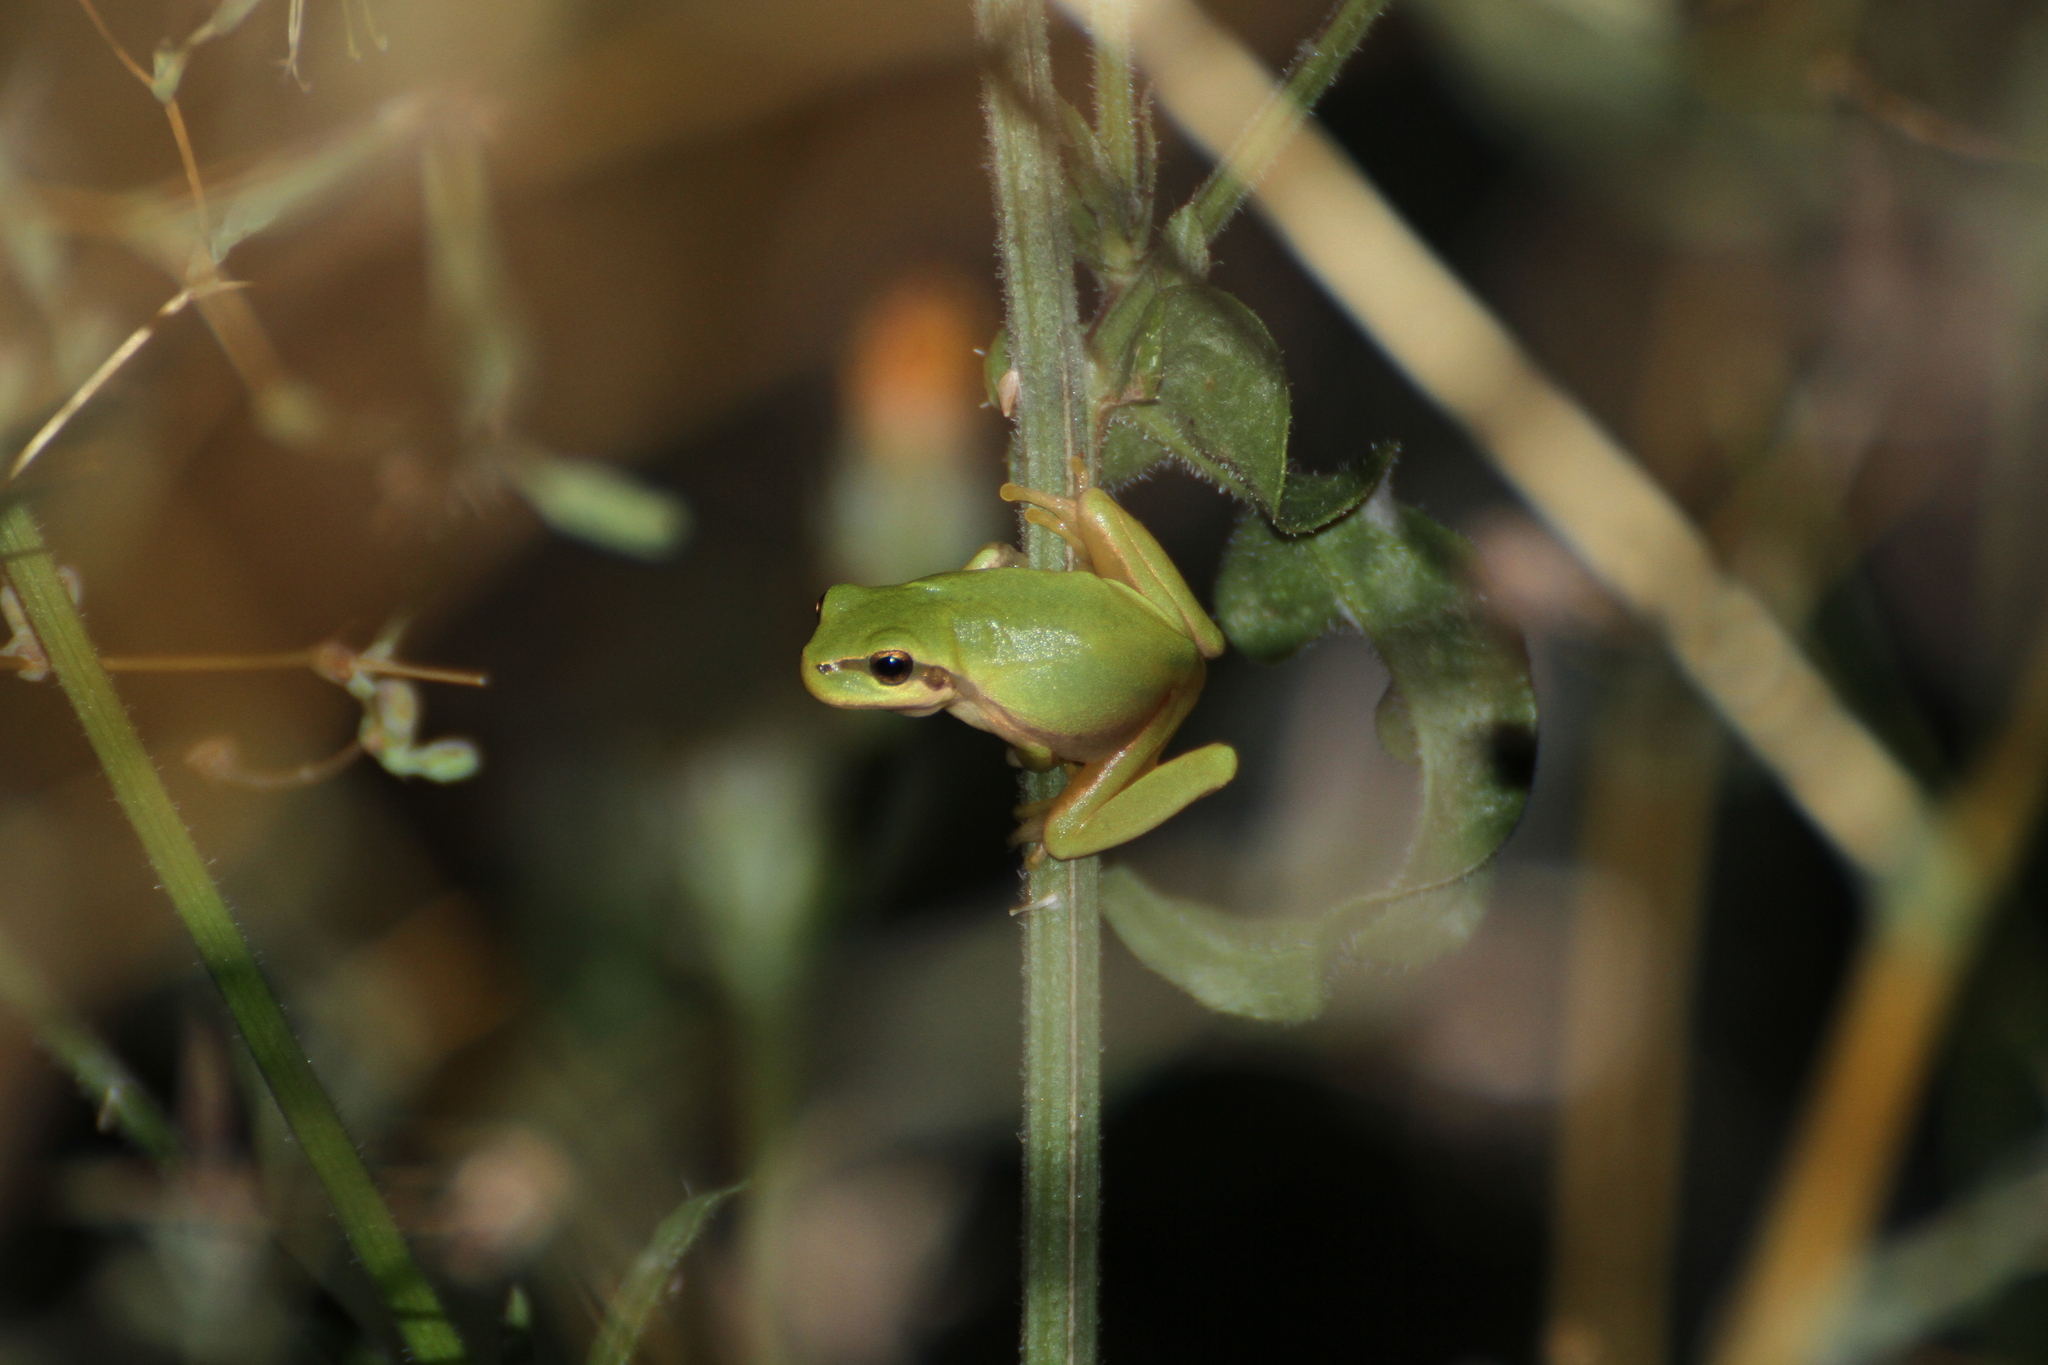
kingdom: Animalia
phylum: Chordata
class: Amphibia
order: Anura
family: Hylidae
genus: Hyla
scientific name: Hyla meridionalis
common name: Stripeless tree frog
